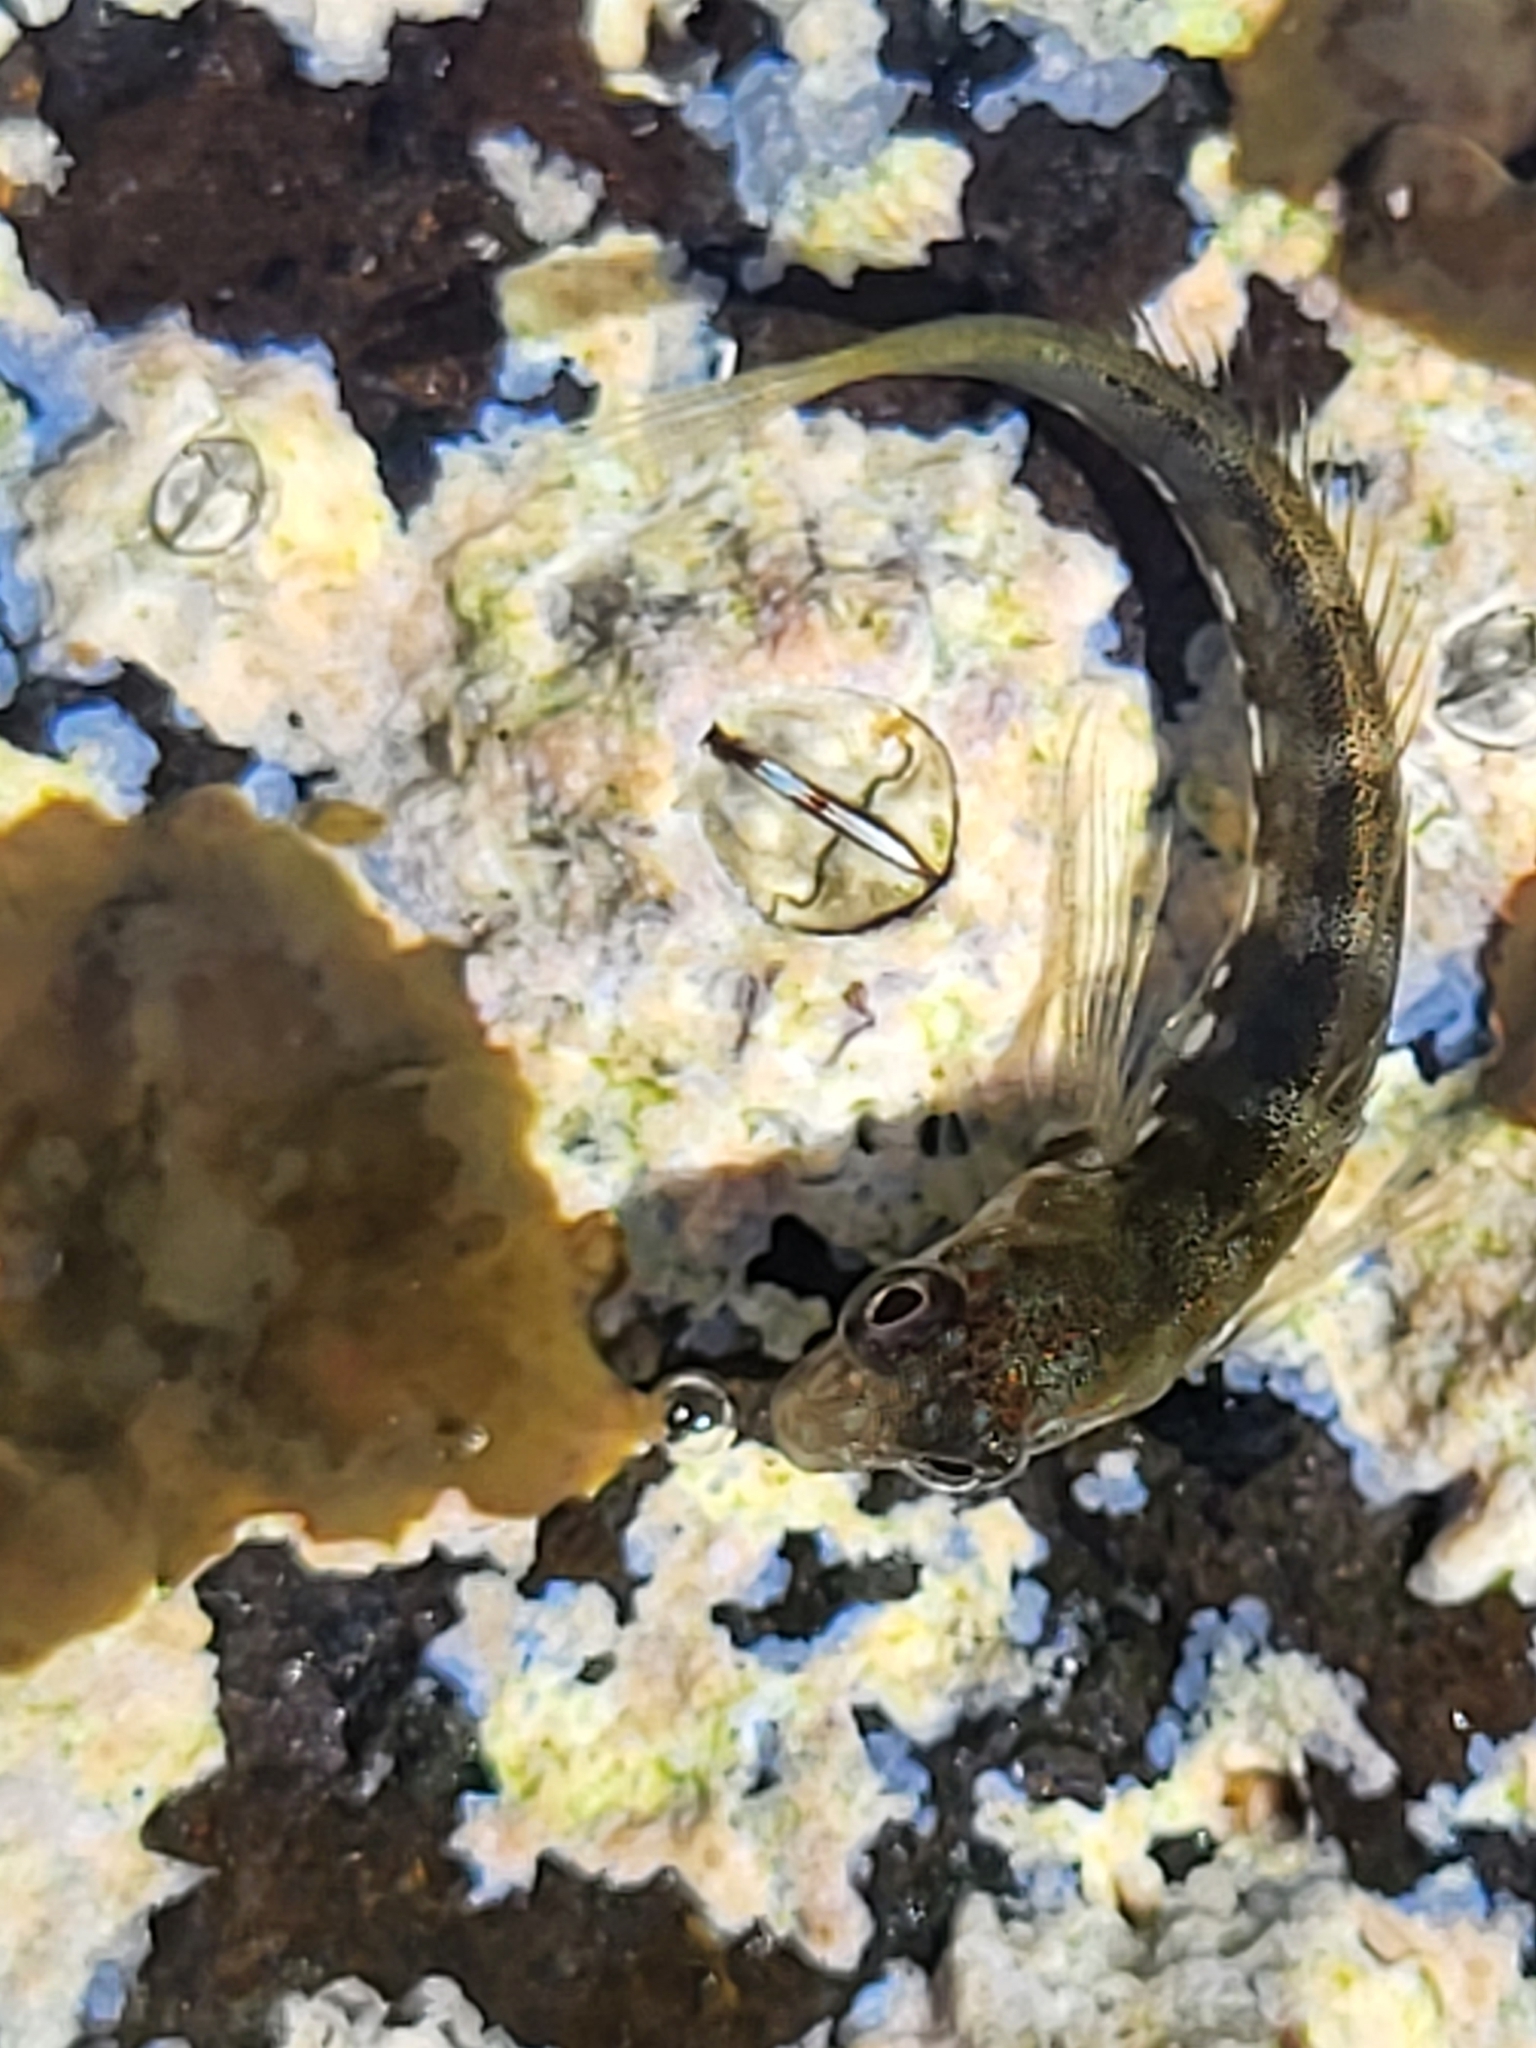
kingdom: Animalia
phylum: Chordata
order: Perciformes
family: Blenniidae
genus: Microlipophrys
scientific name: Microlipophrys caboverdensis
